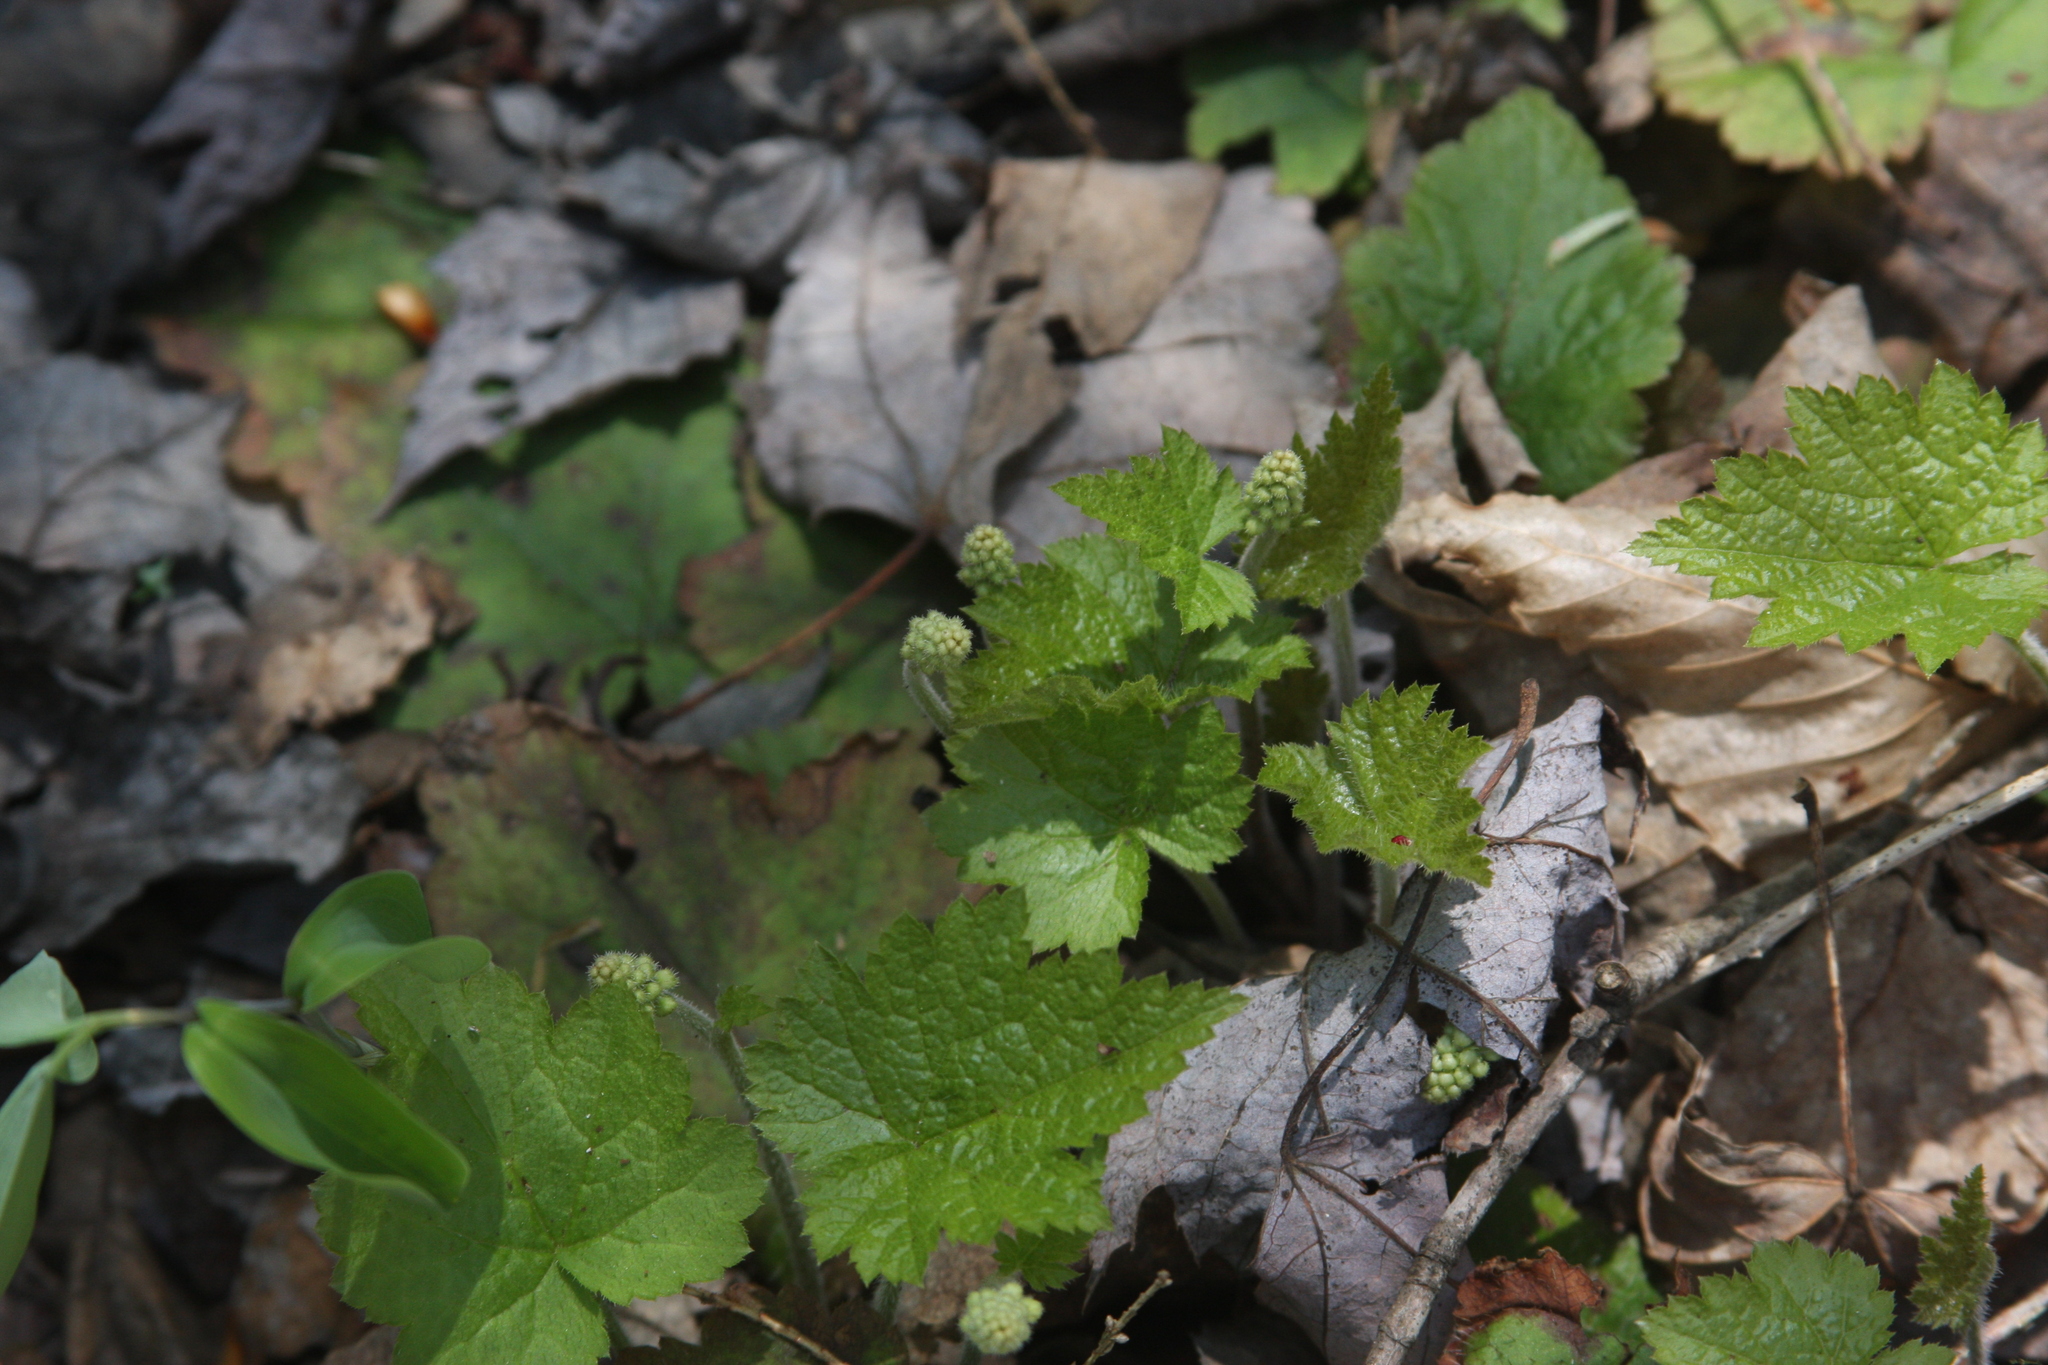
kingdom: Plantae
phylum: Tracheophyta
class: Magnoliopsida
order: Saxifragales
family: Saxifragaceae
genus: Tiarella
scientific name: Tiarella stolonifera
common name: Stoloniferous foamflower
